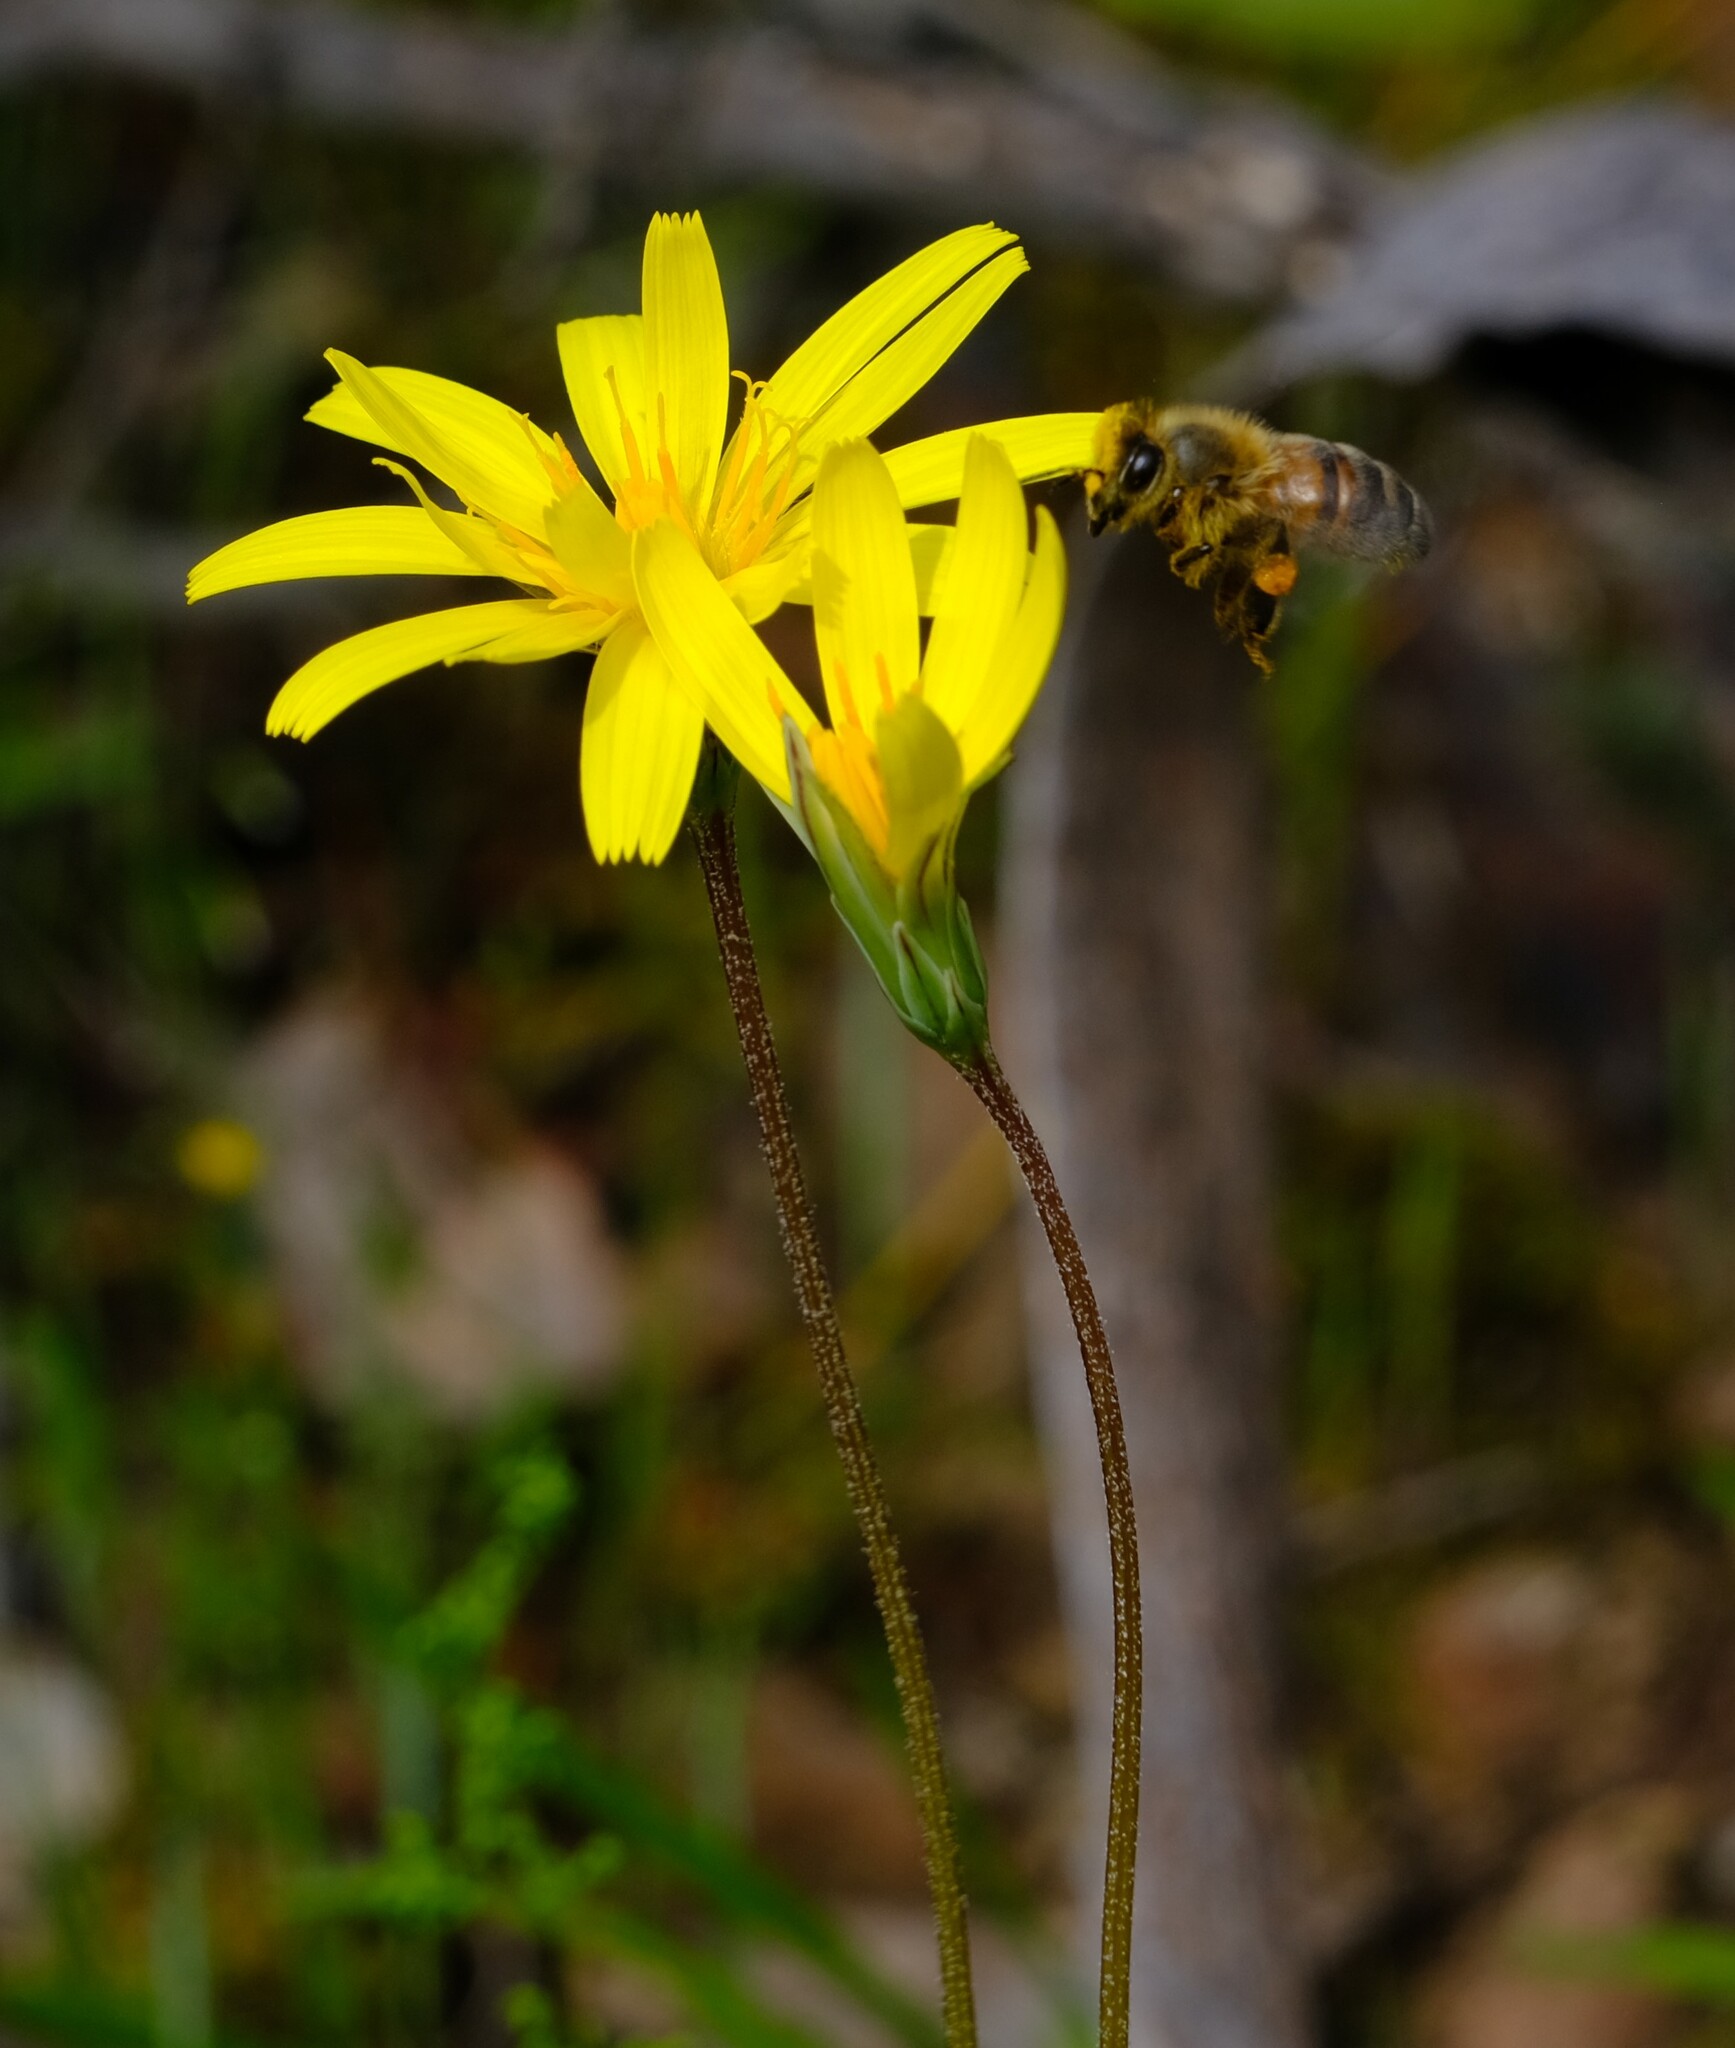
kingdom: Plantae
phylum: Tracheophyta
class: Magnoliopsida
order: Asterales
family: Asteraceae
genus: Microseris
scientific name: Microseris lanceolata
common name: Yam daisy
